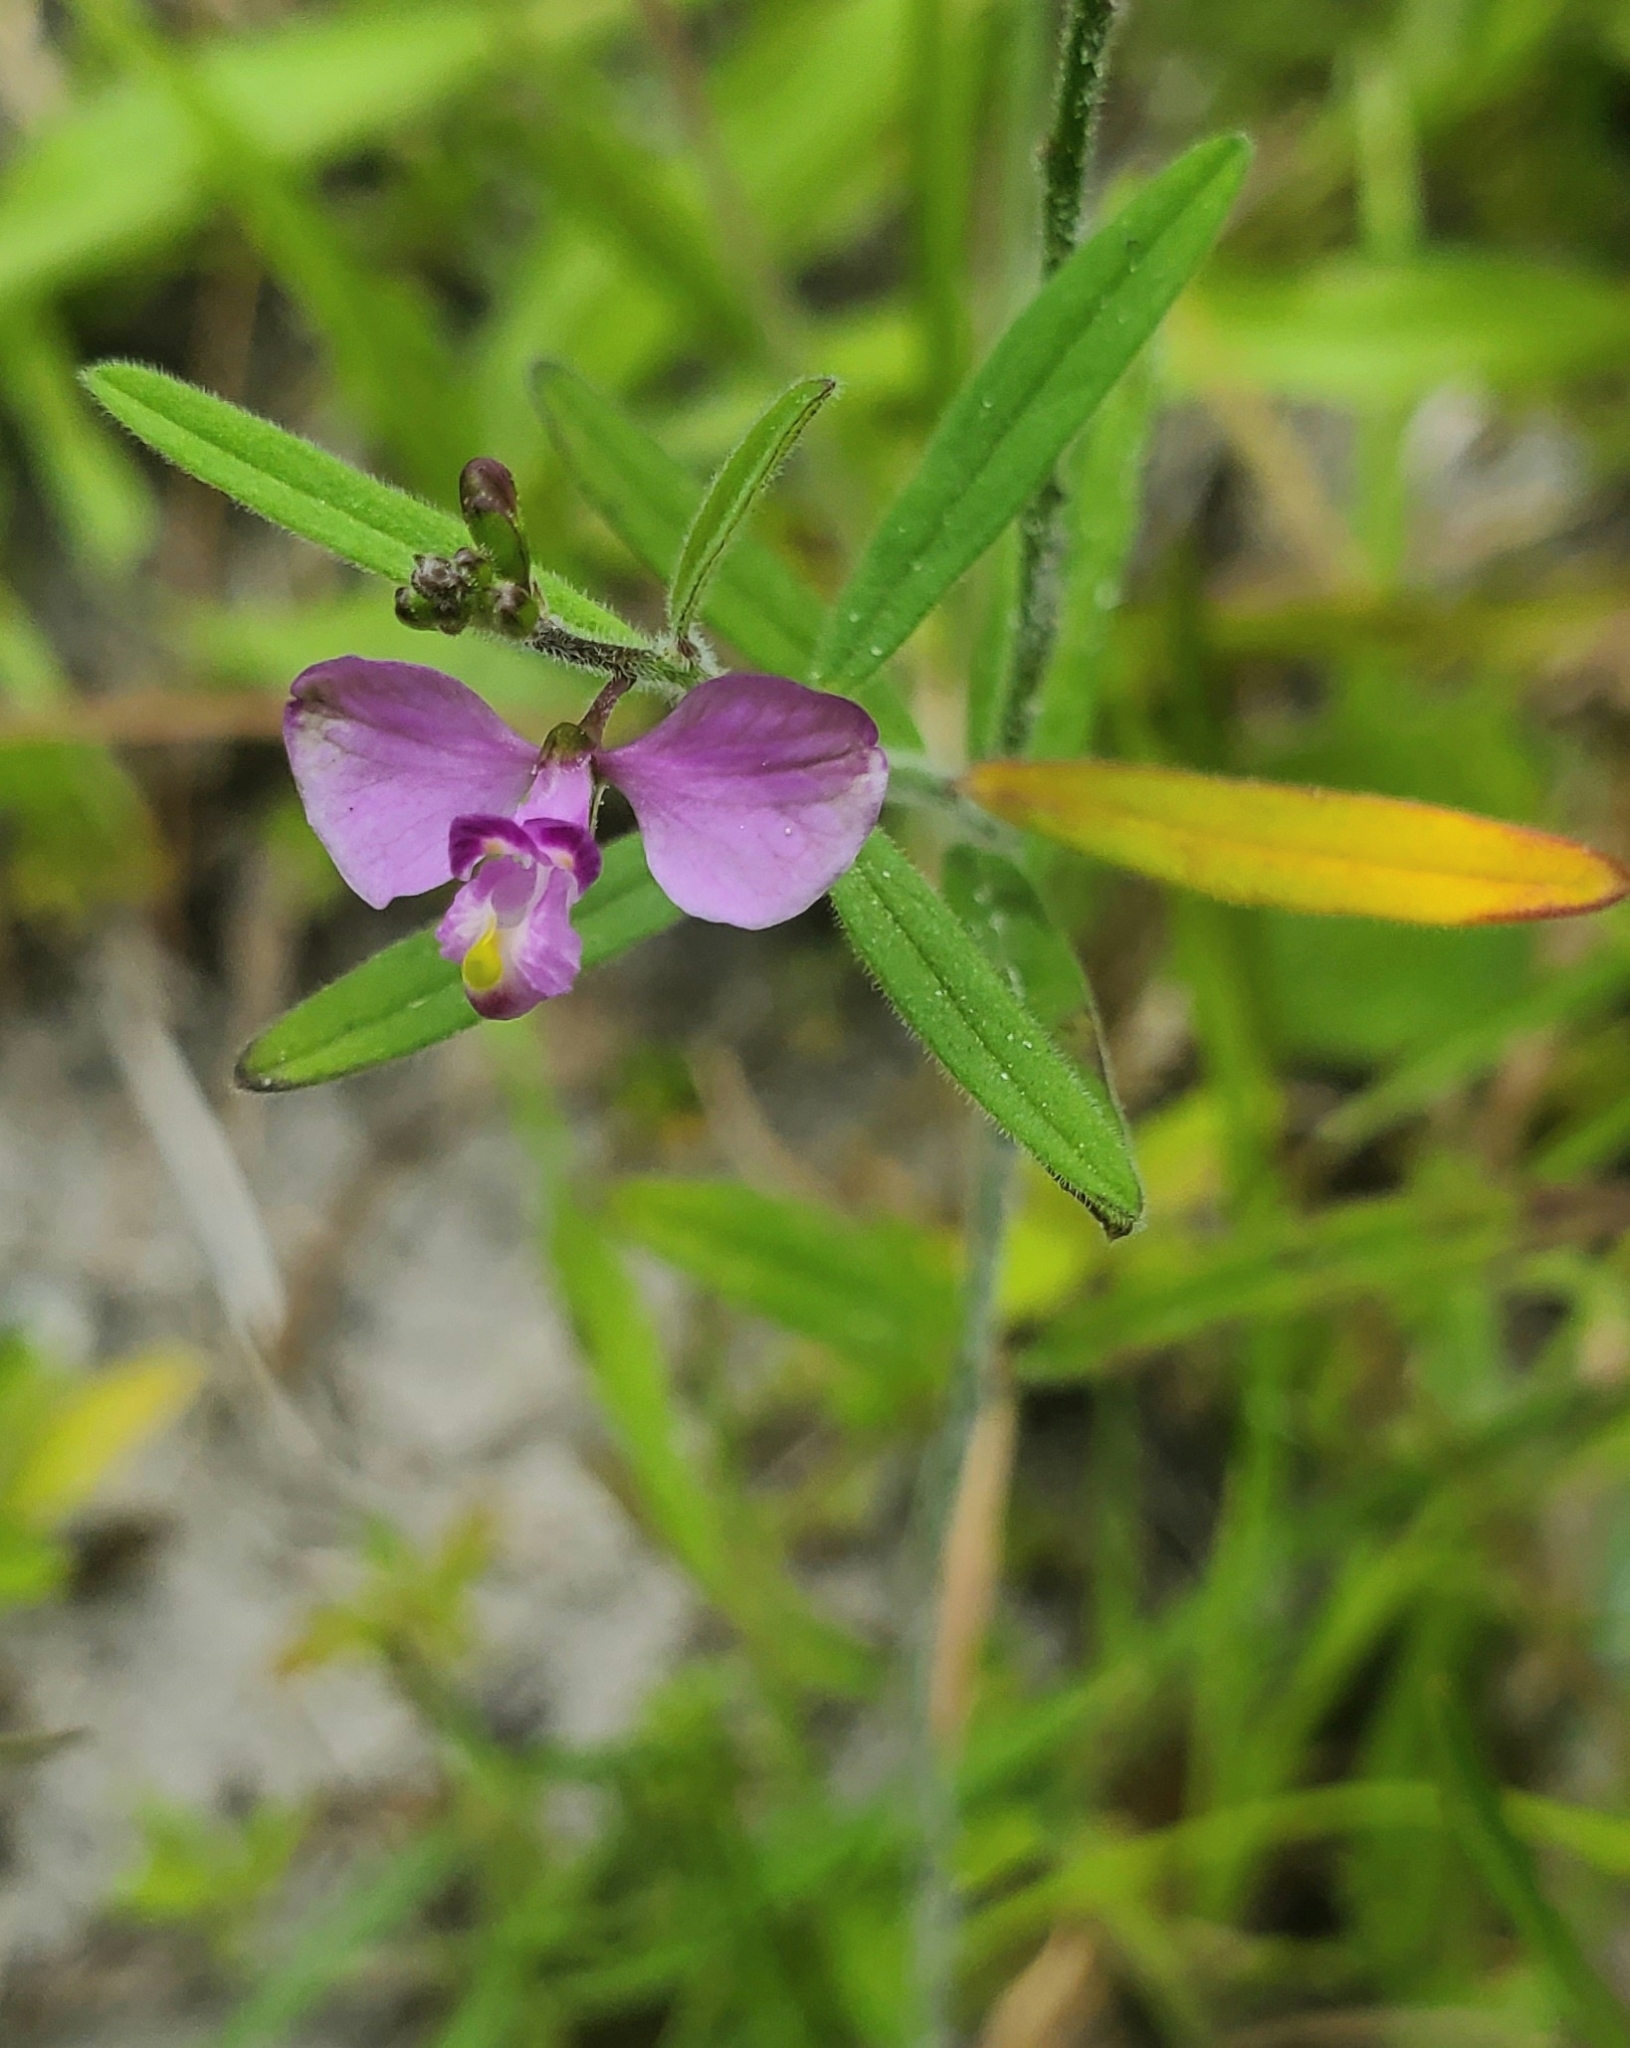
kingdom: Plantae
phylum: Tracheophyta
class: Magnoliopsida
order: Fabales
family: Polygalaceae
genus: Asemeia
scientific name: Asemeia grandiflora
